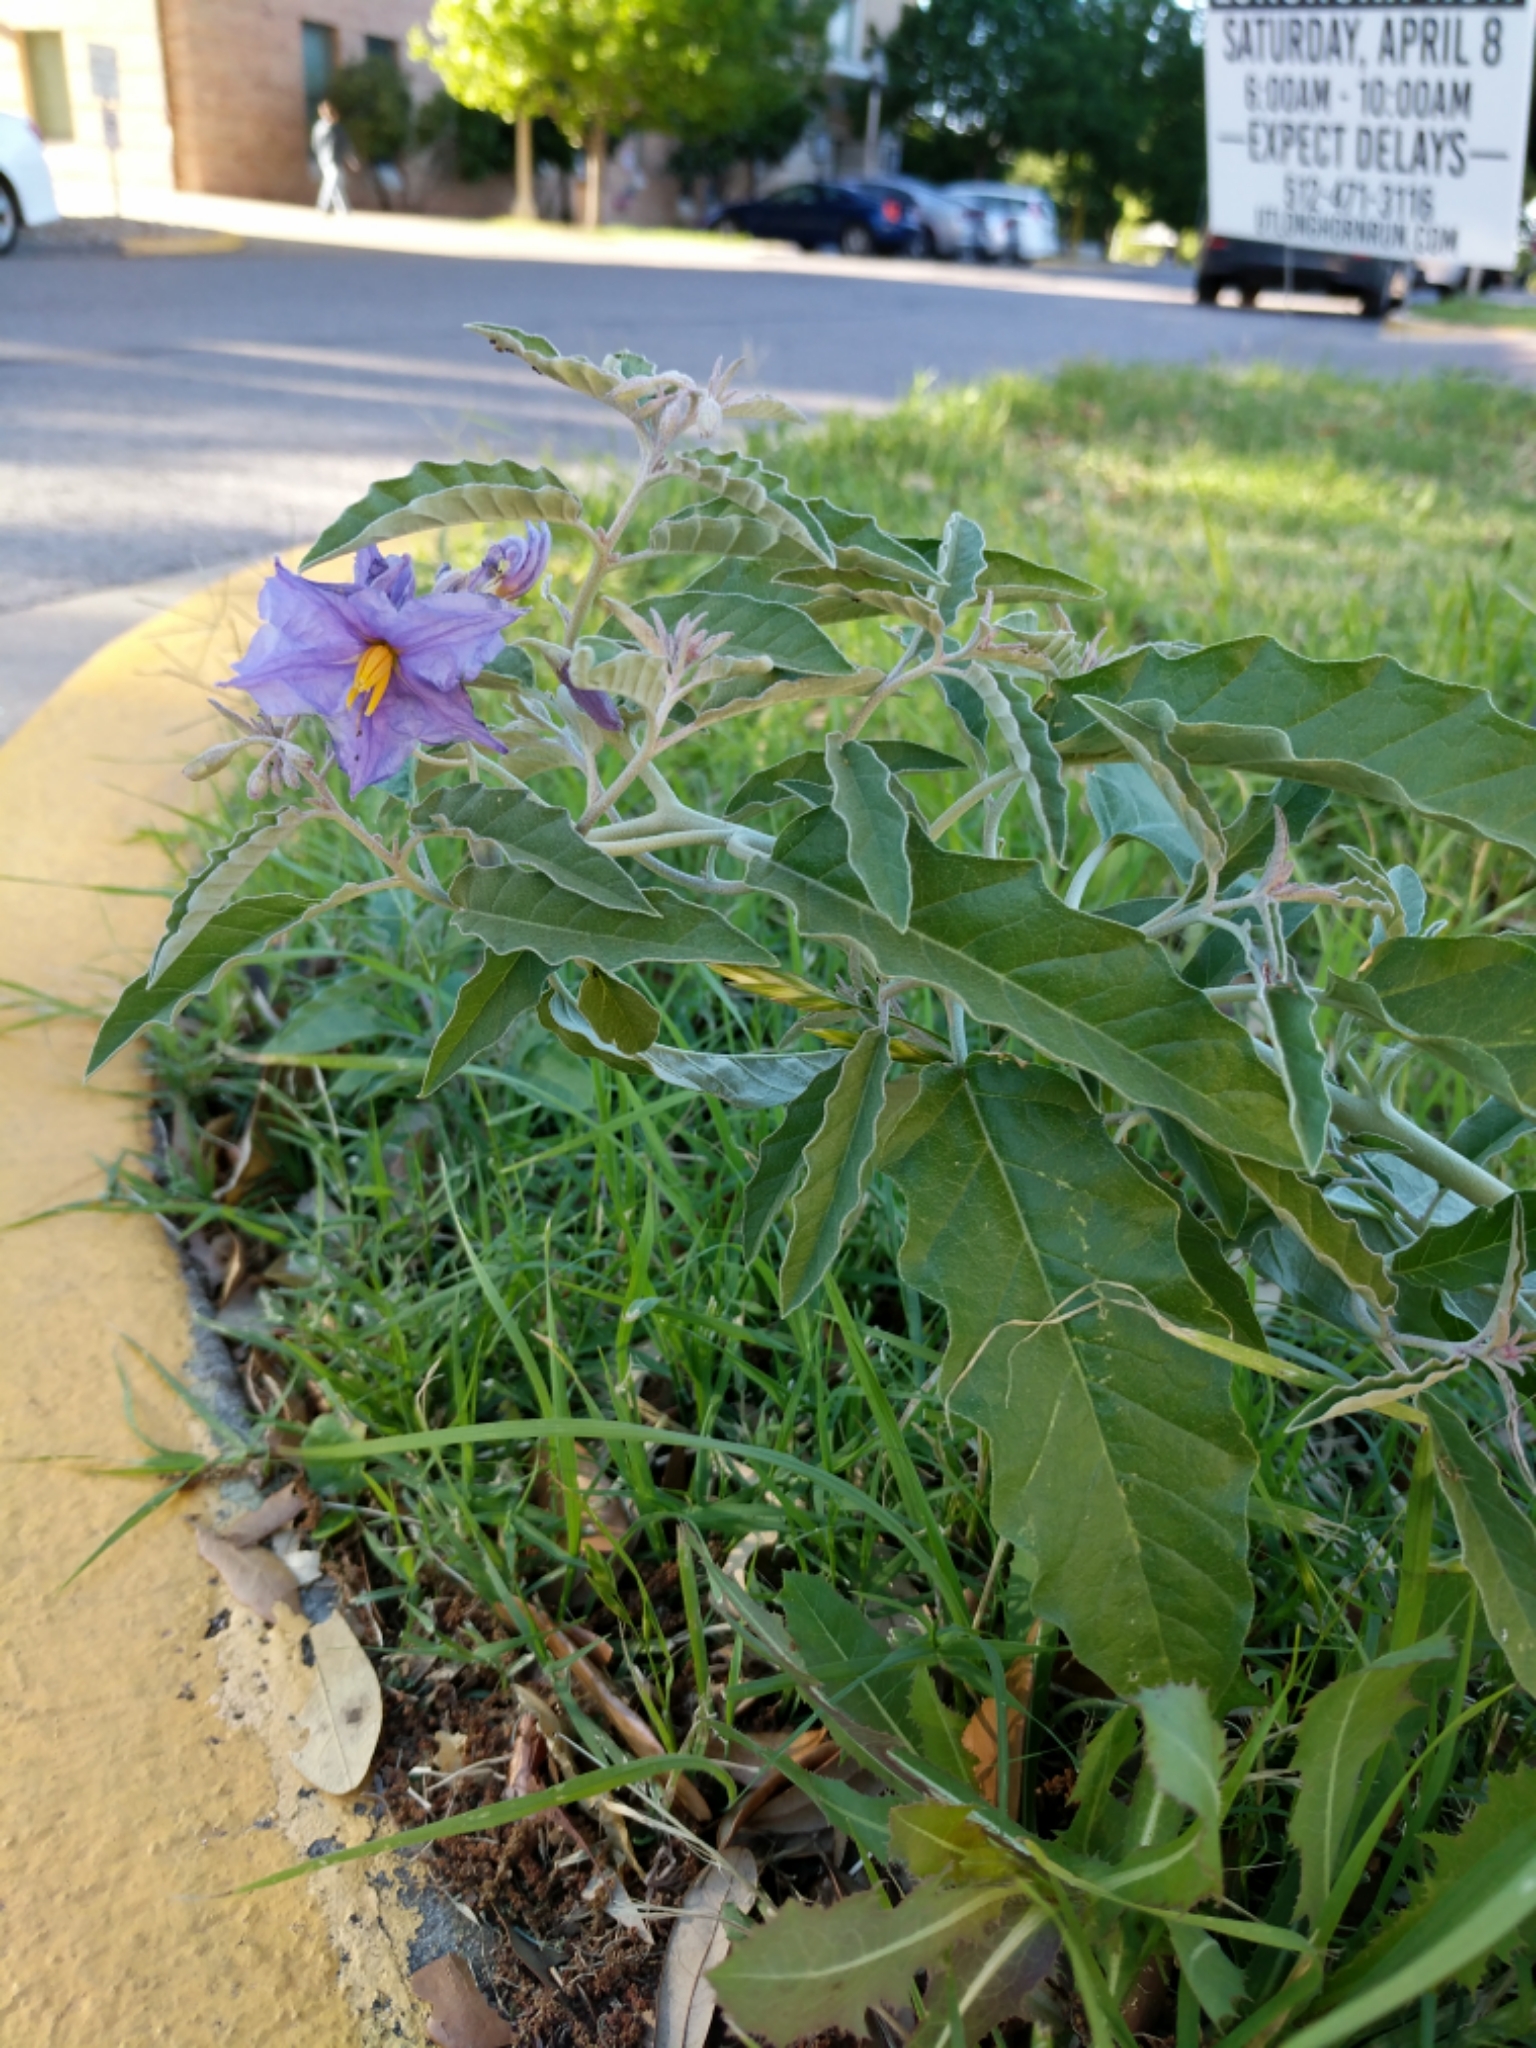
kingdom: Plantae
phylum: Tracheophyta
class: Magnoliopsida
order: Solanales
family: Solanaceae
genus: Solanum
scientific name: Solanum elaeagnifolium
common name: Silverleaf nightshade
